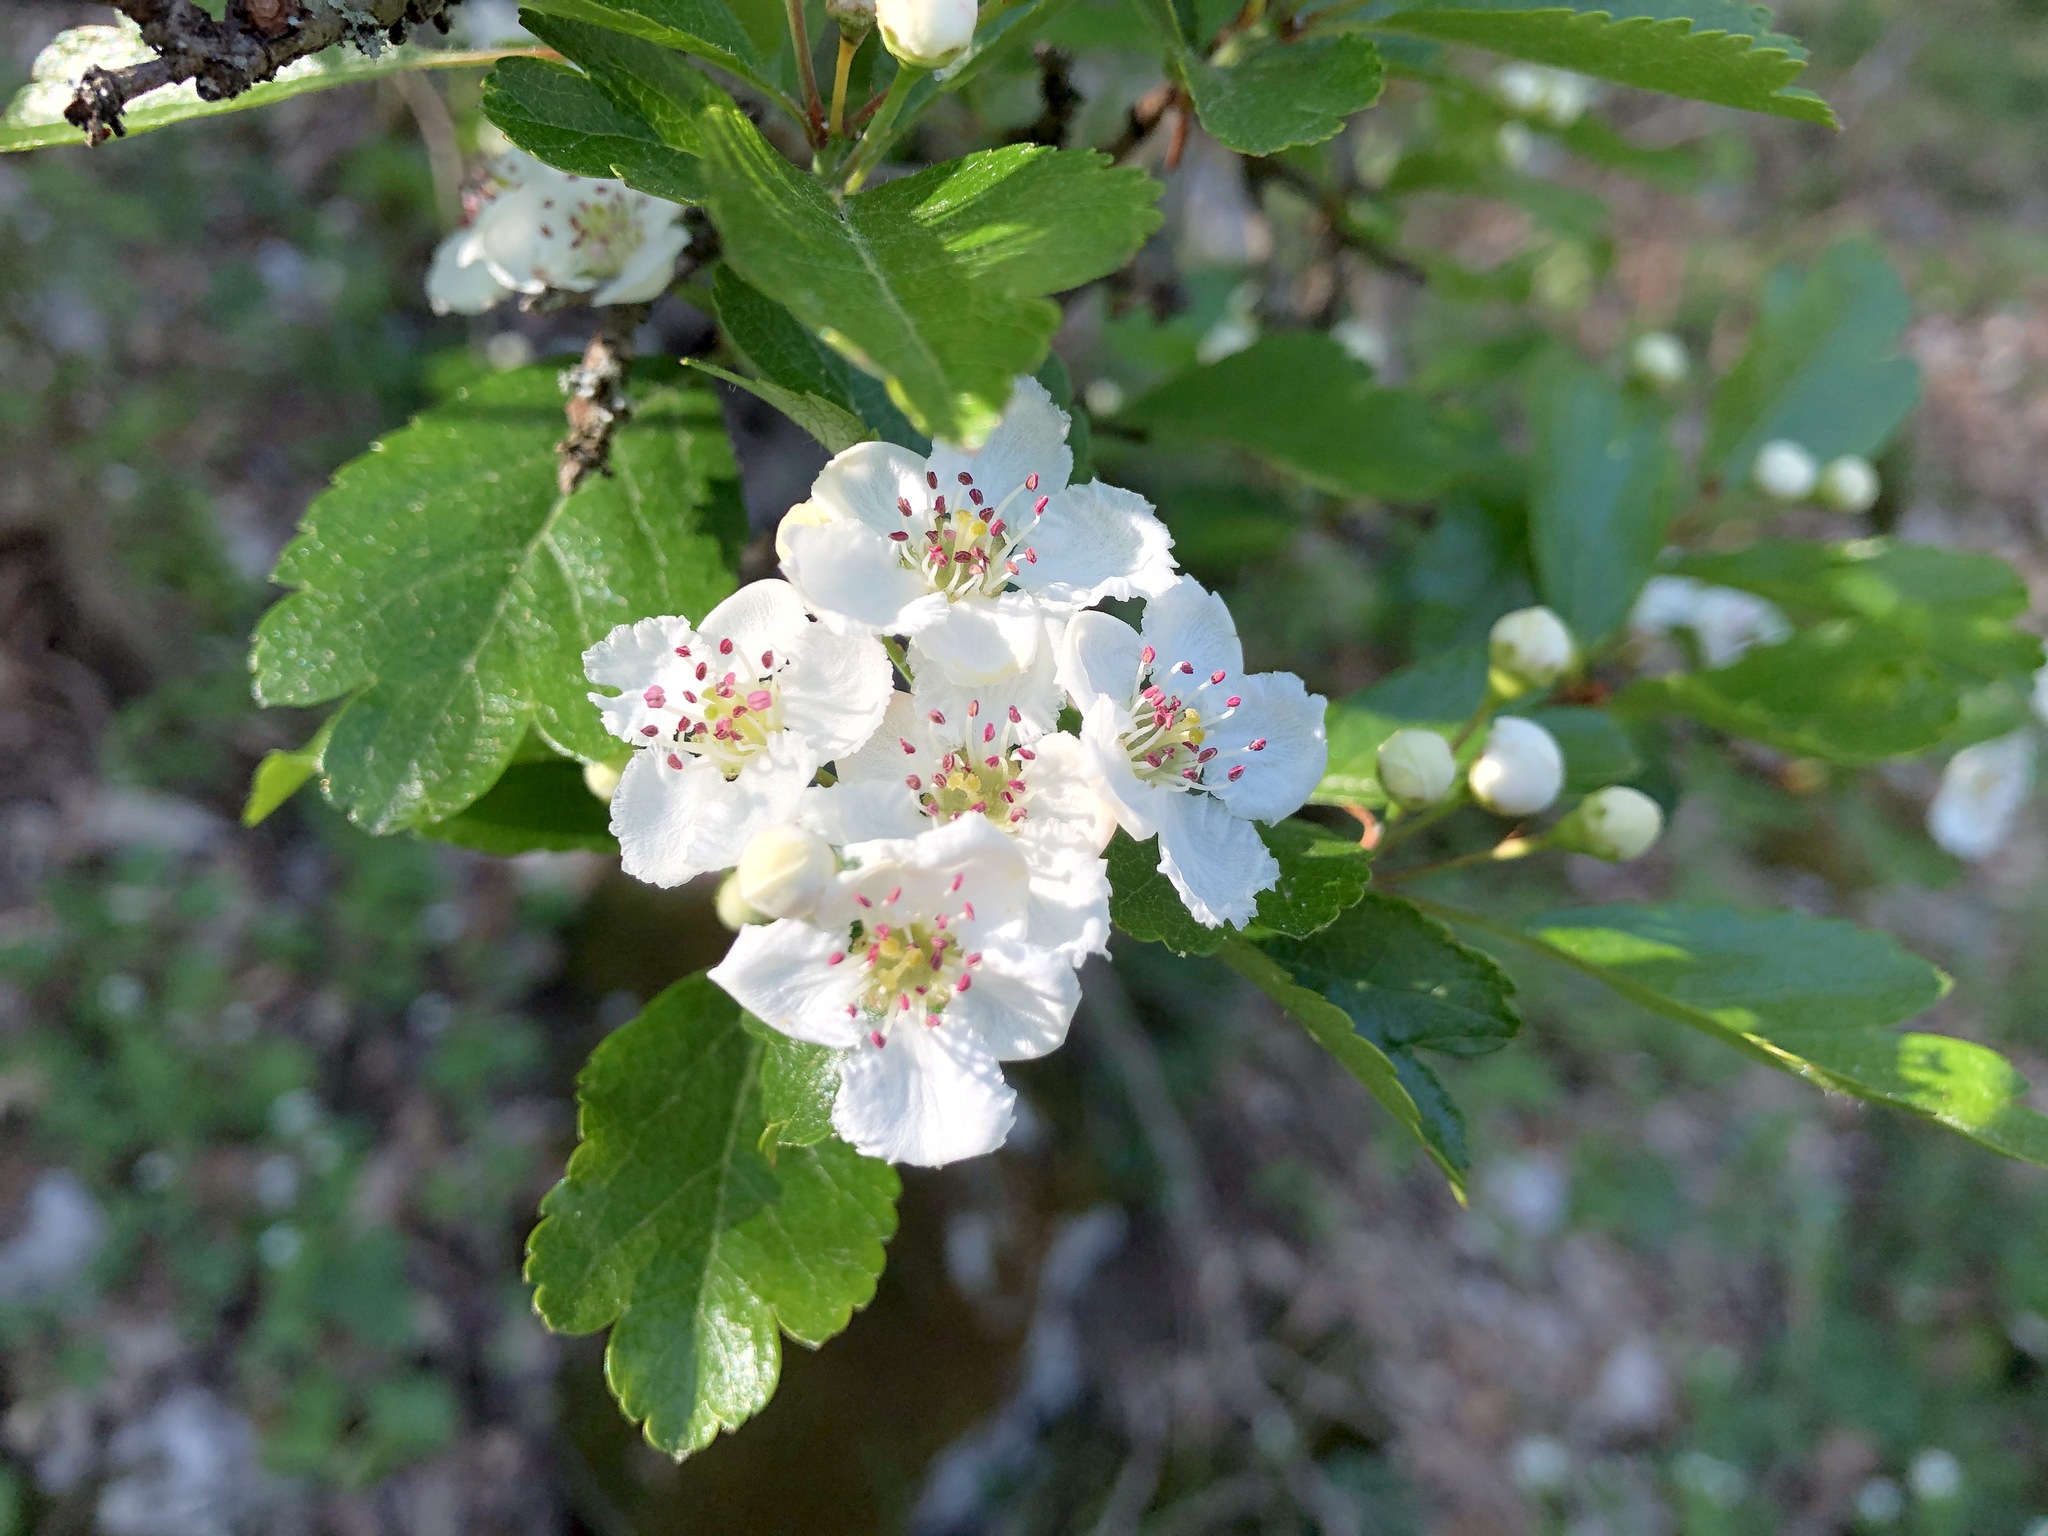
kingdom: Plantae
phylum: Tracheophyta
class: Magnoliopsida
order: Rosales
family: Rosaceae
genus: Crataegus
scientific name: Crataegus laevigata
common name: Midland hawthorn
